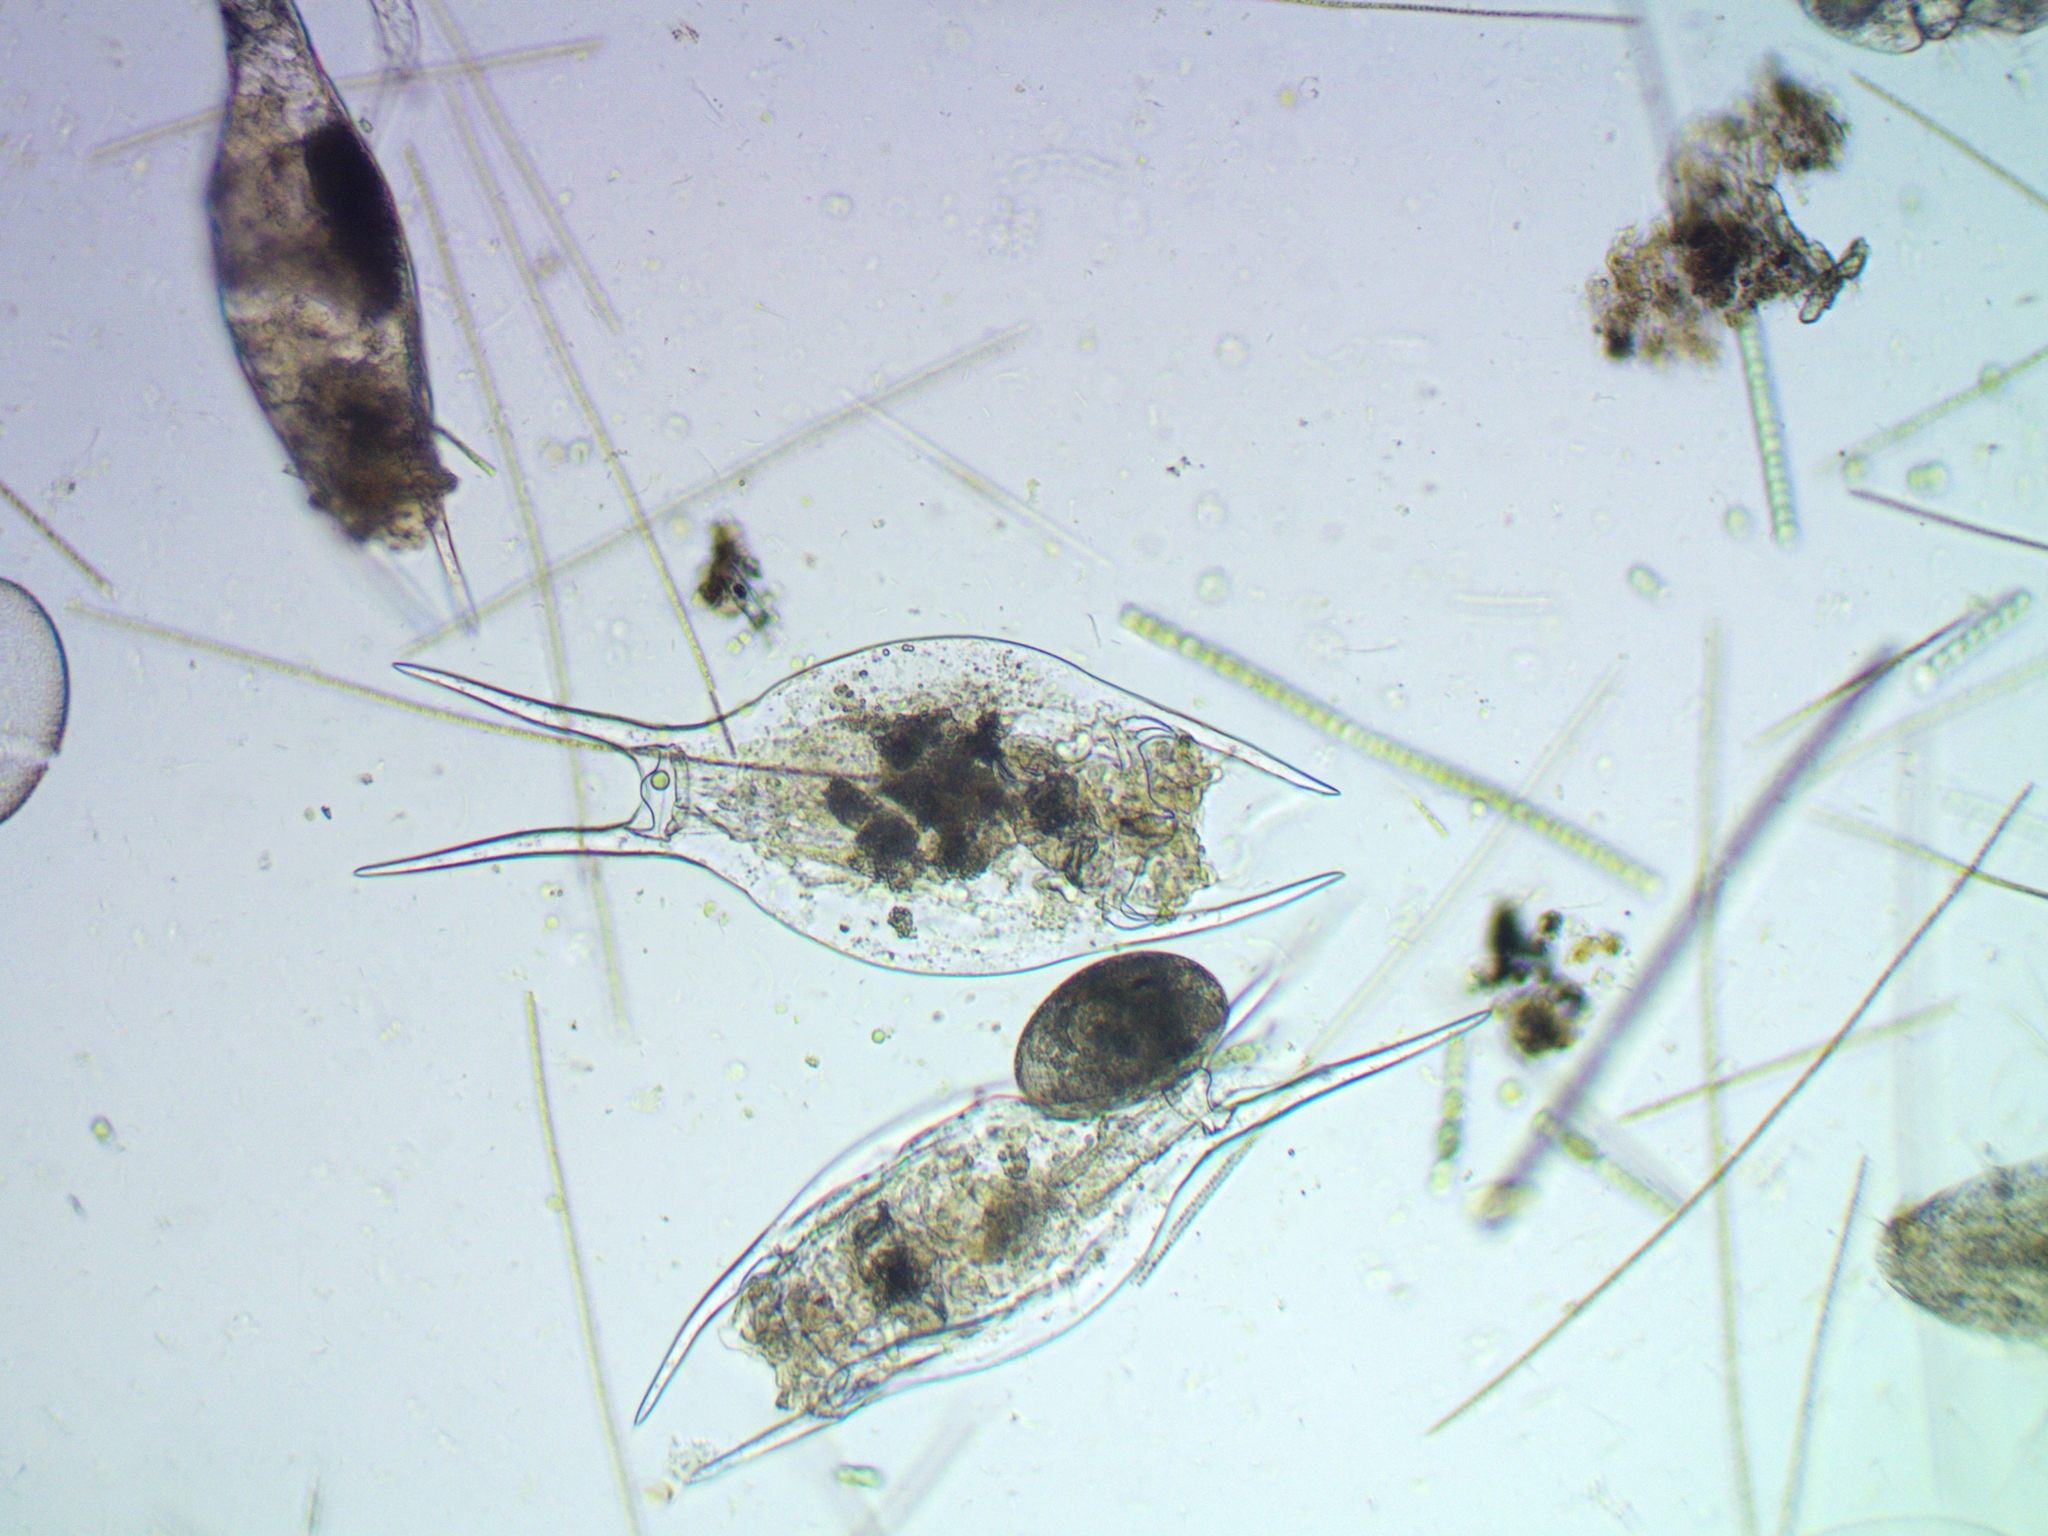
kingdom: Animalia
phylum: Rotifera
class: Eurotatoria
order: Ploima
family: Brachionidae
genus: Brachionus
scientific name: Brachionus diversicornis
